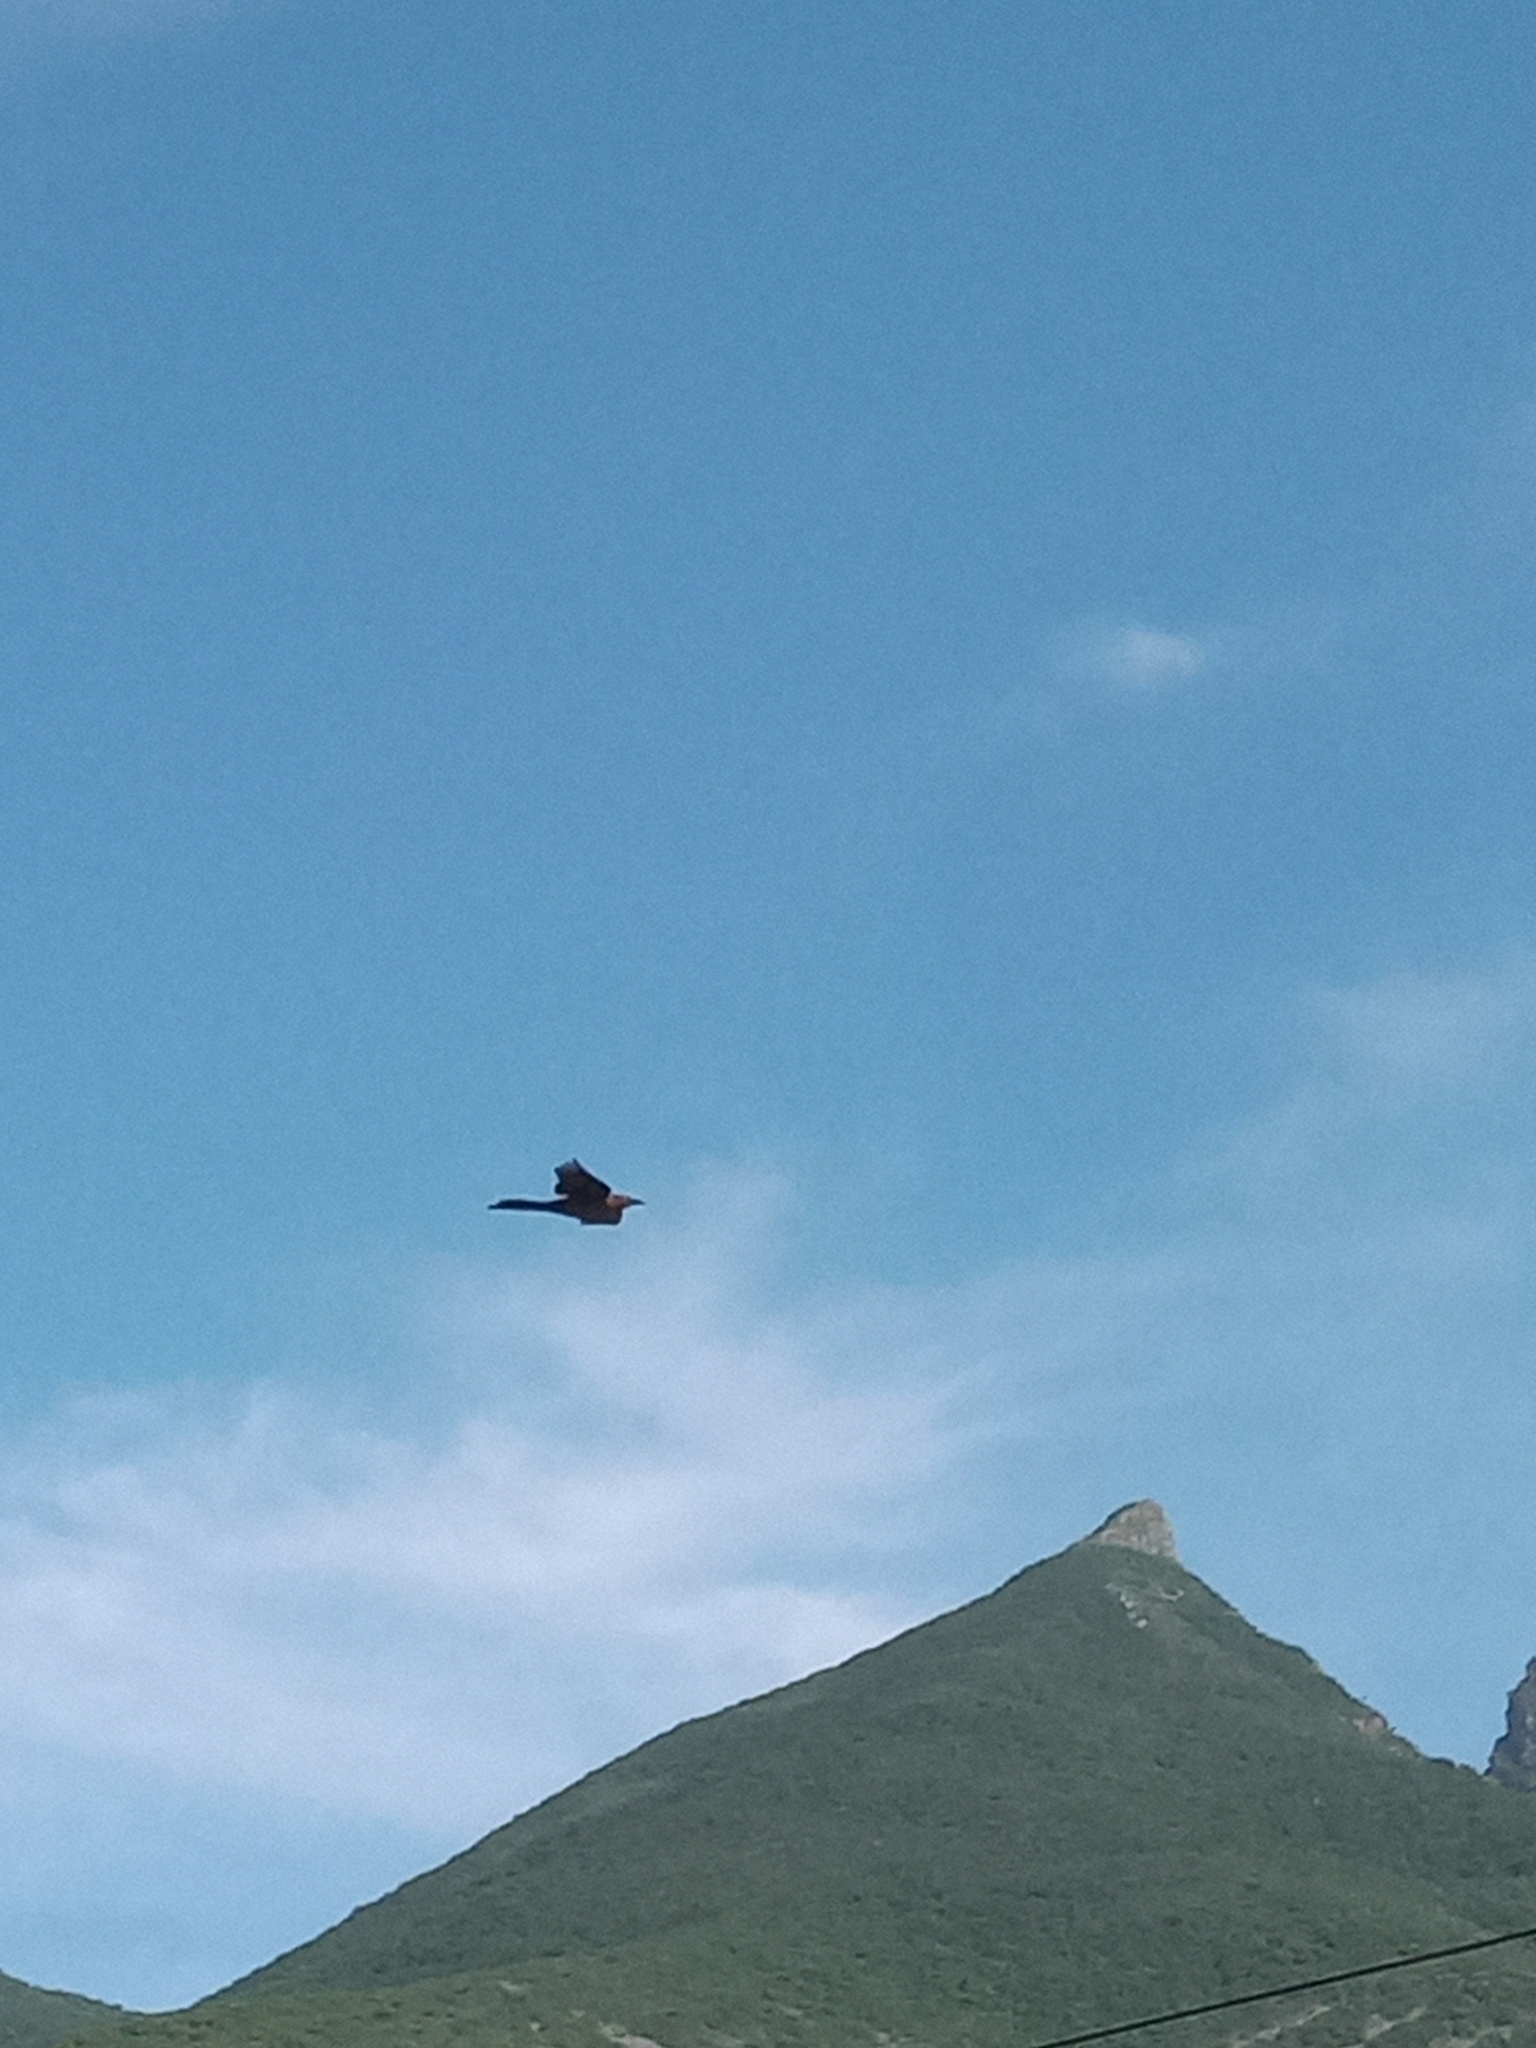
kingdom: Animalia
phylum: Chordata
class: Aves
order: Passeriformes
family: Icteridae
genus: Quiscalus
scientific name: Quiscalus mexicanus
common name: Great-tailed grackle
